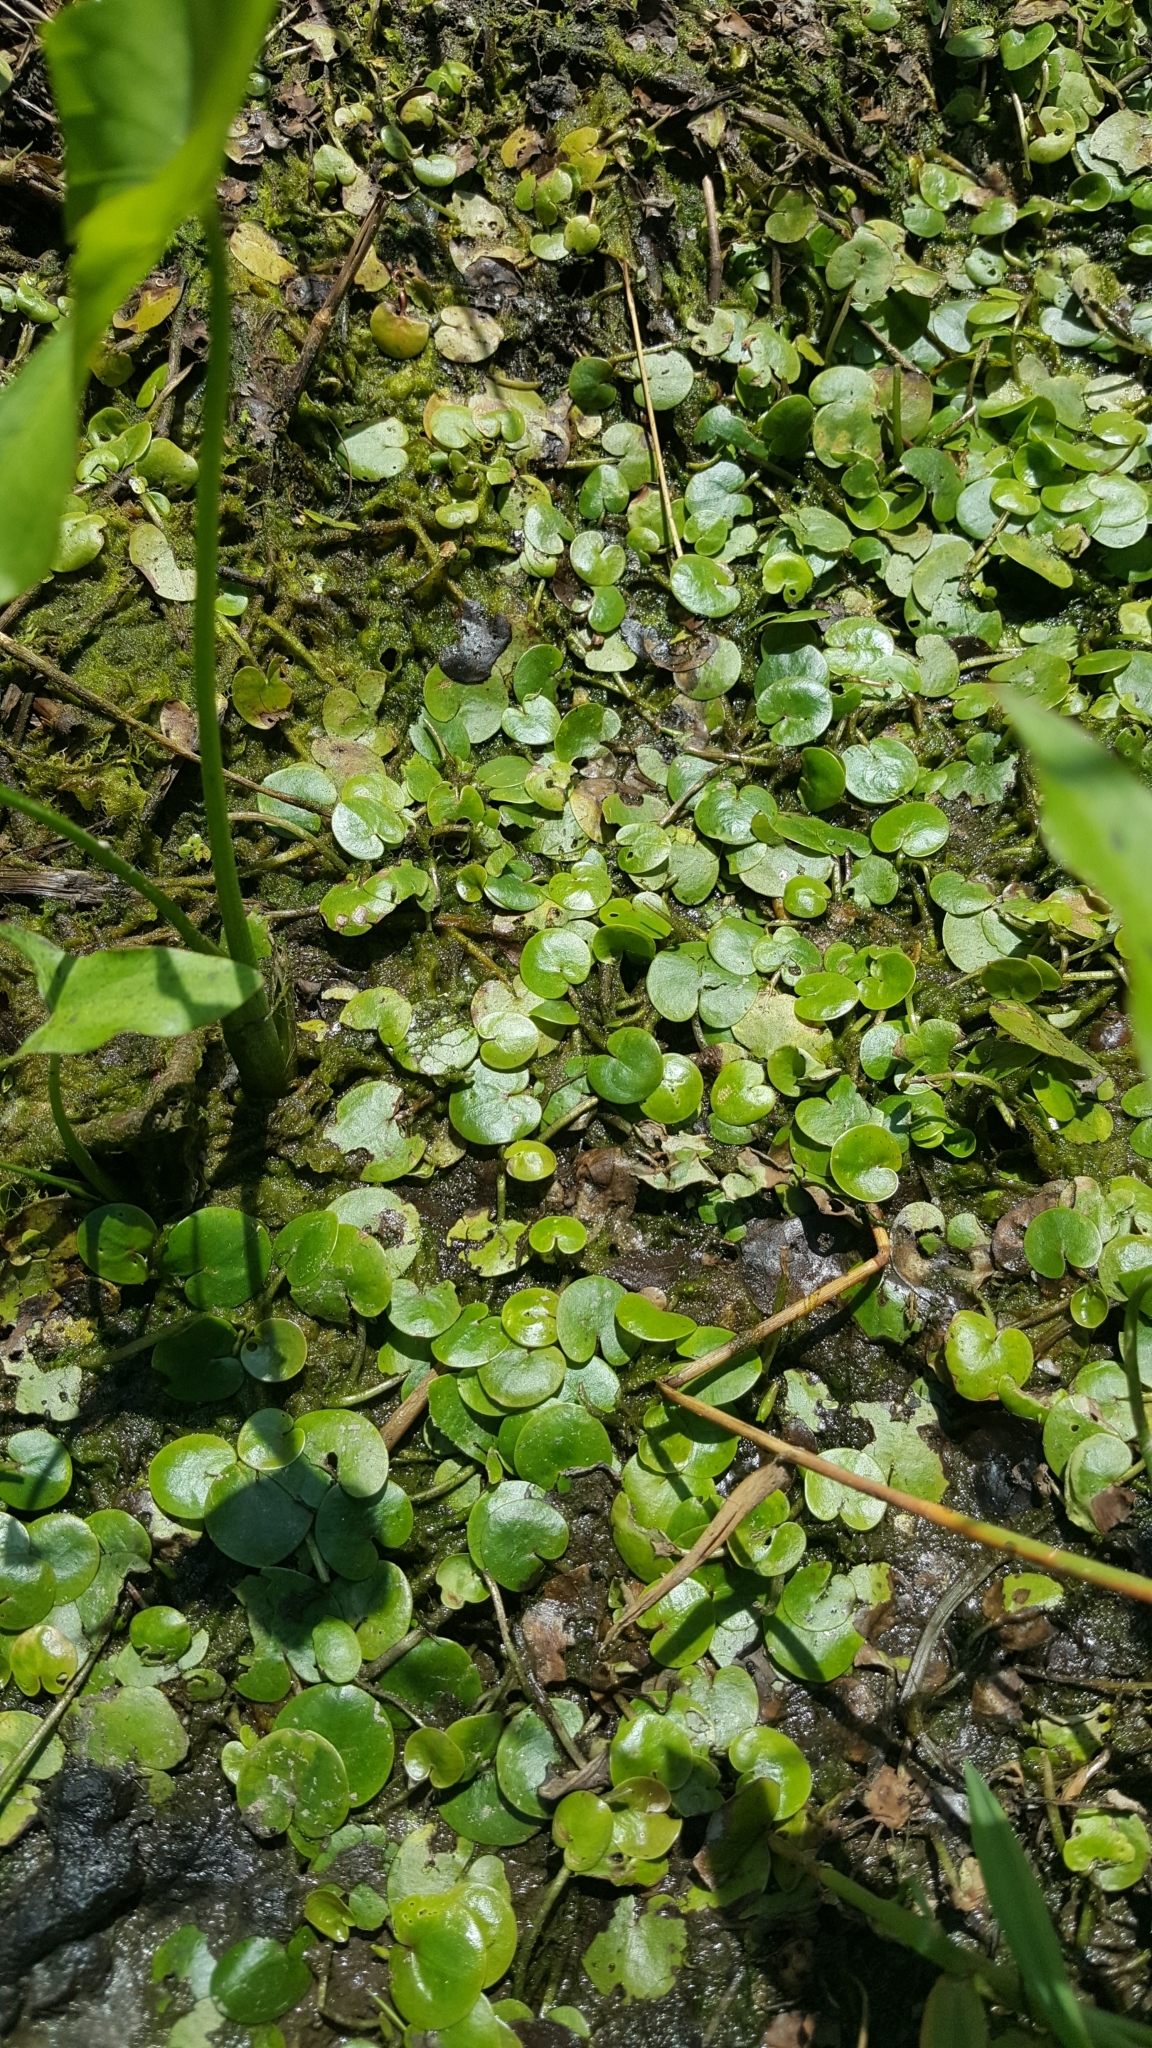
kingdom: Plantae
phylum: Tracheophyta
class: Liliopsida
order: Alismatales
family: Hydrocharitaceae
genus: Hydrocharis
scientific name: Hydrocharis morsus-ranae
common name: Frogbit
